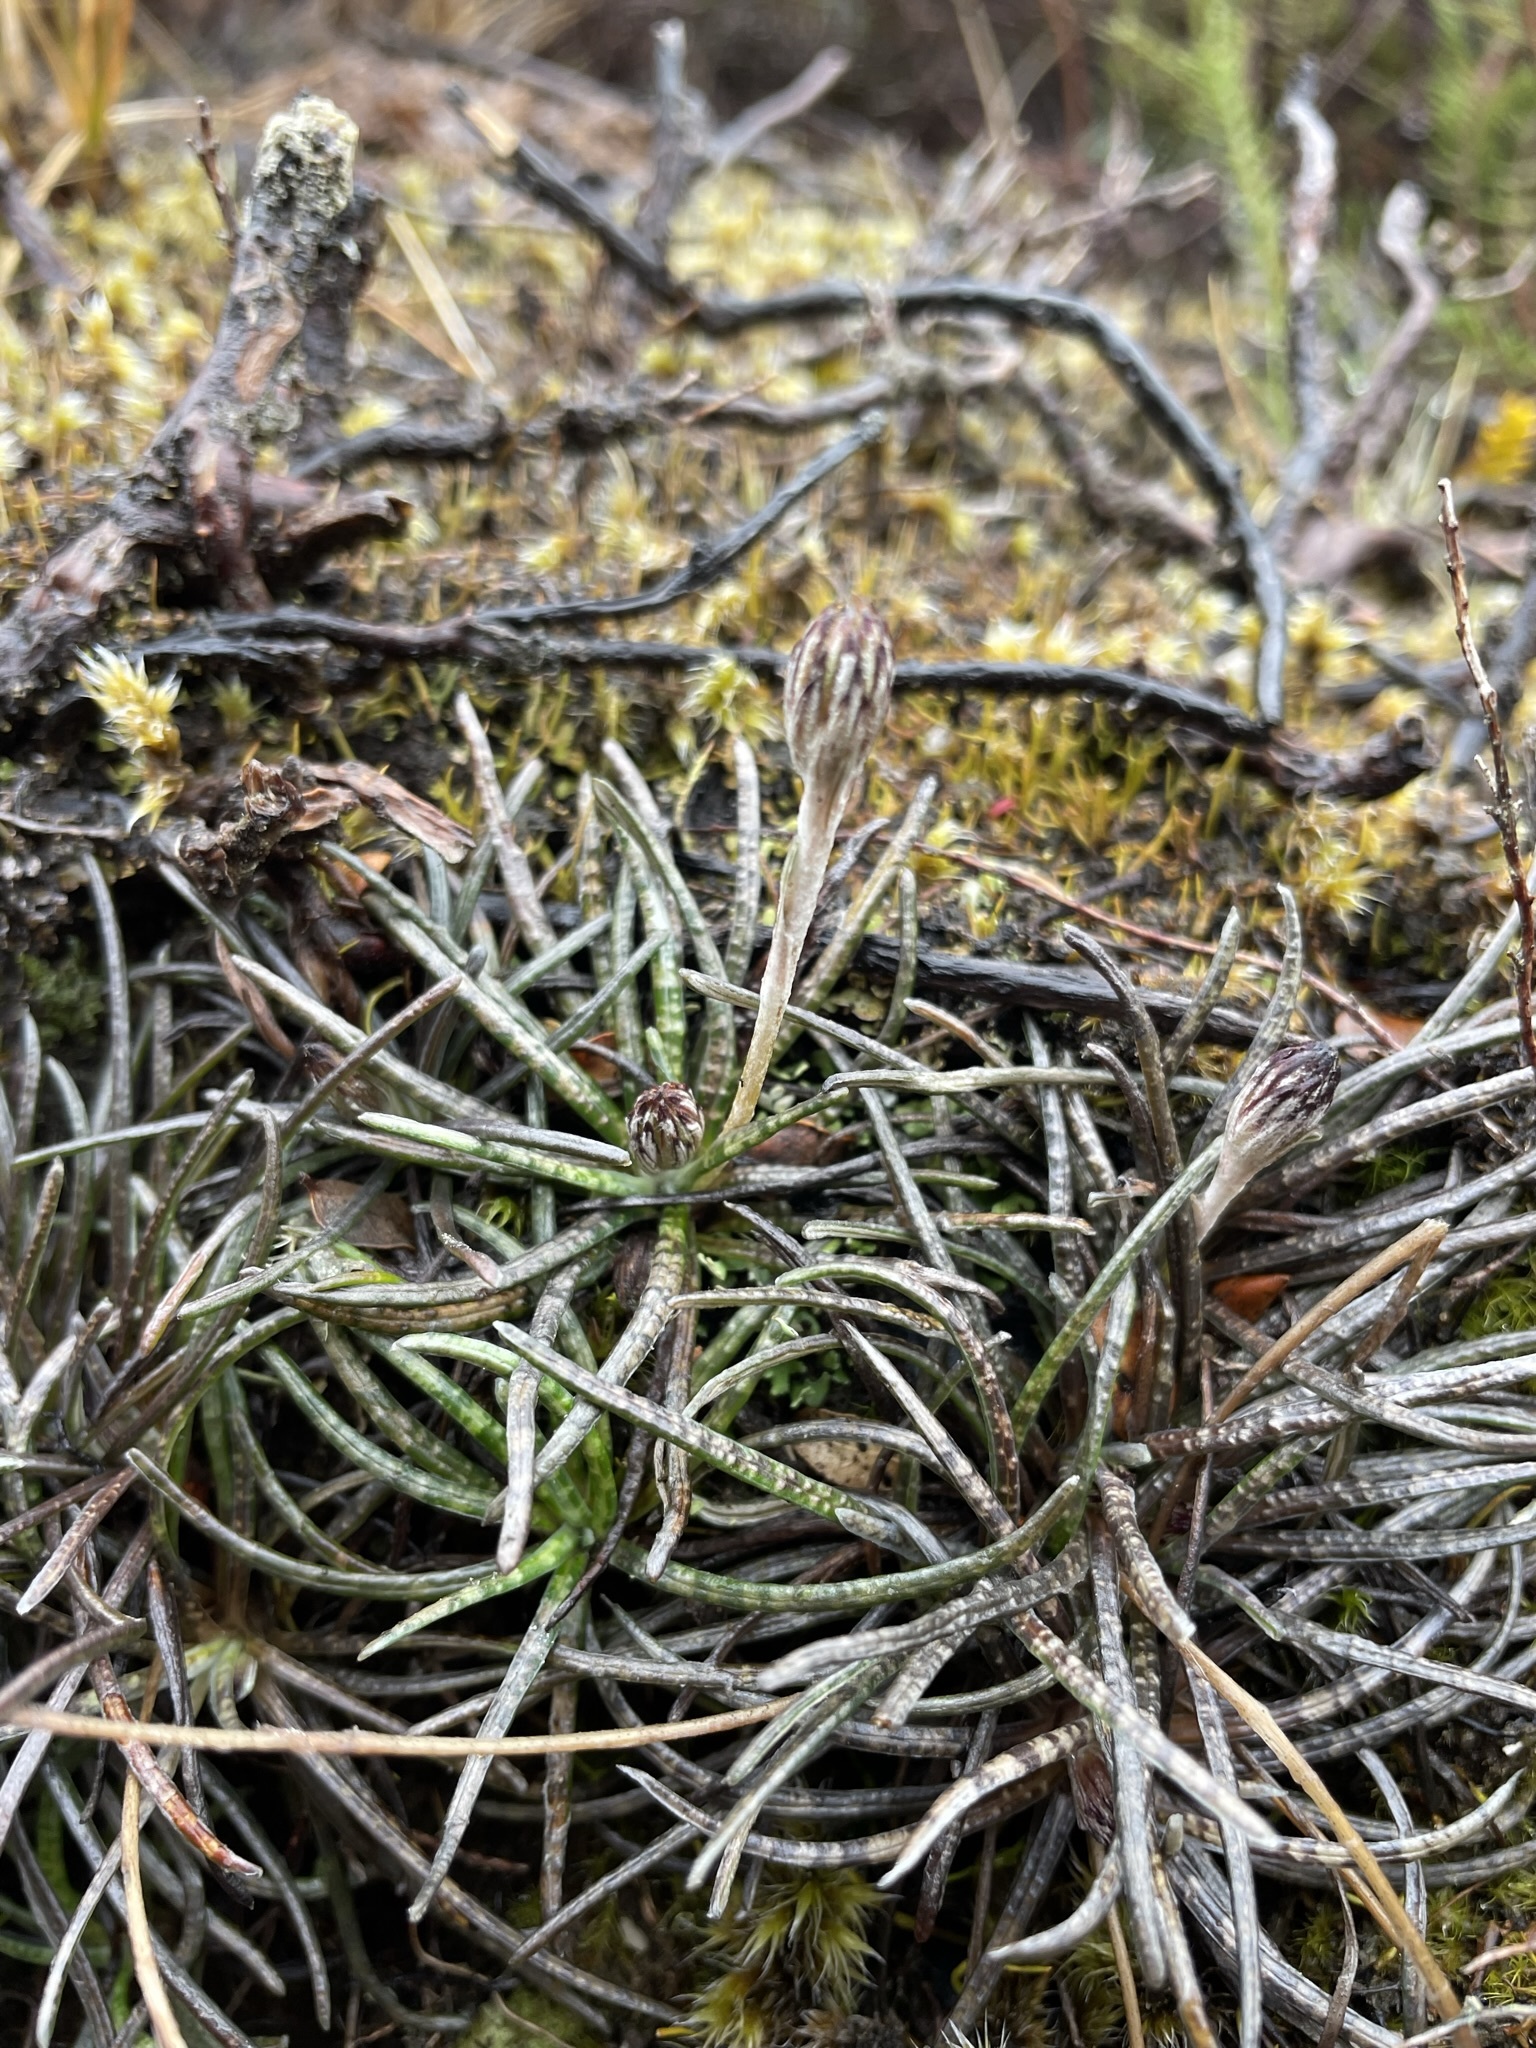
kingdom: Plantae
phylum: Tracheophyta
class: Magnoliopsida
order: Asterales
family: Asteraceae
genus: Celmisia
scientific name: Celmisia gracilenta
